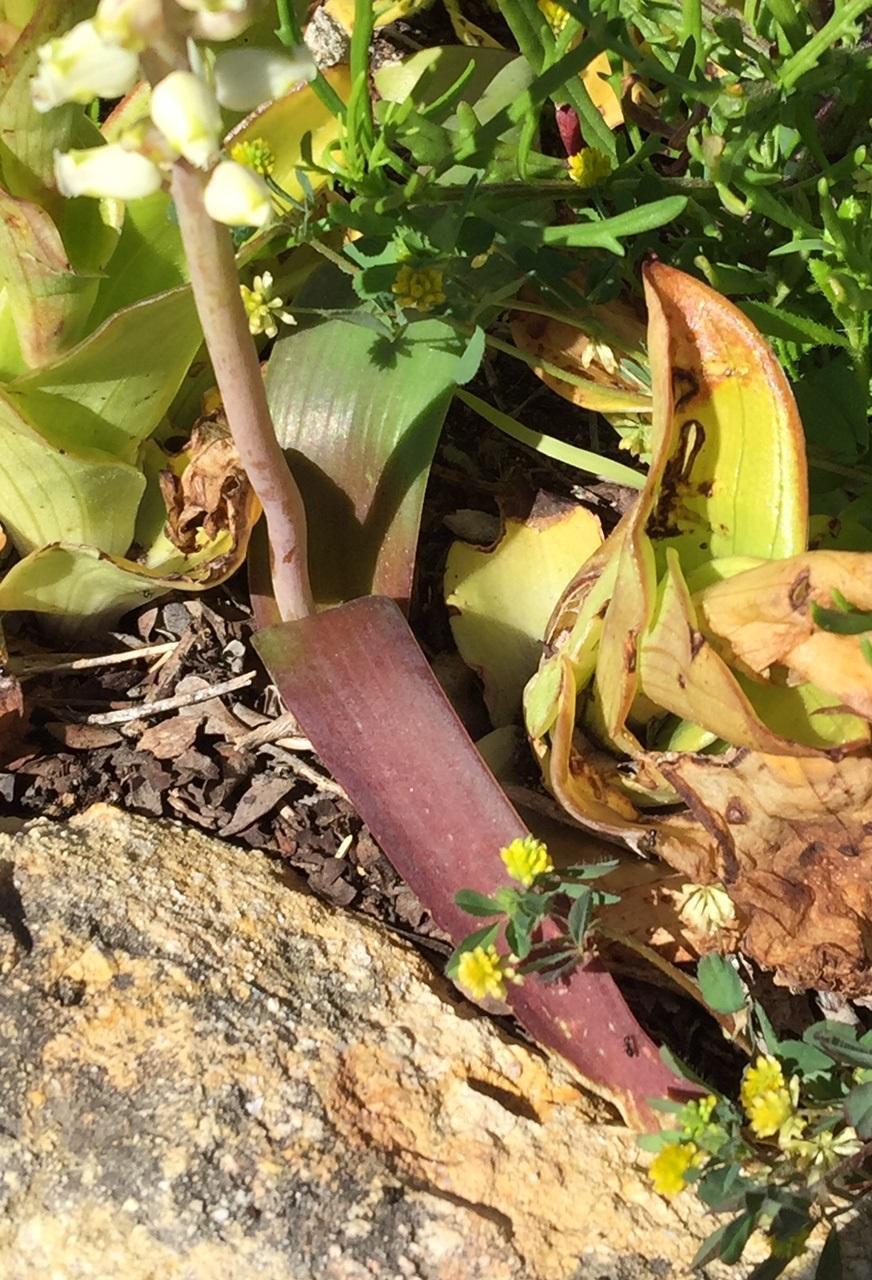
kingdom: Plantae
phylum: Tracheophyta
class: Liliopsida
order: Asparagales
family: Asparagaceae
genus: Lachenalia
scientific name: Lachenalia peersii
